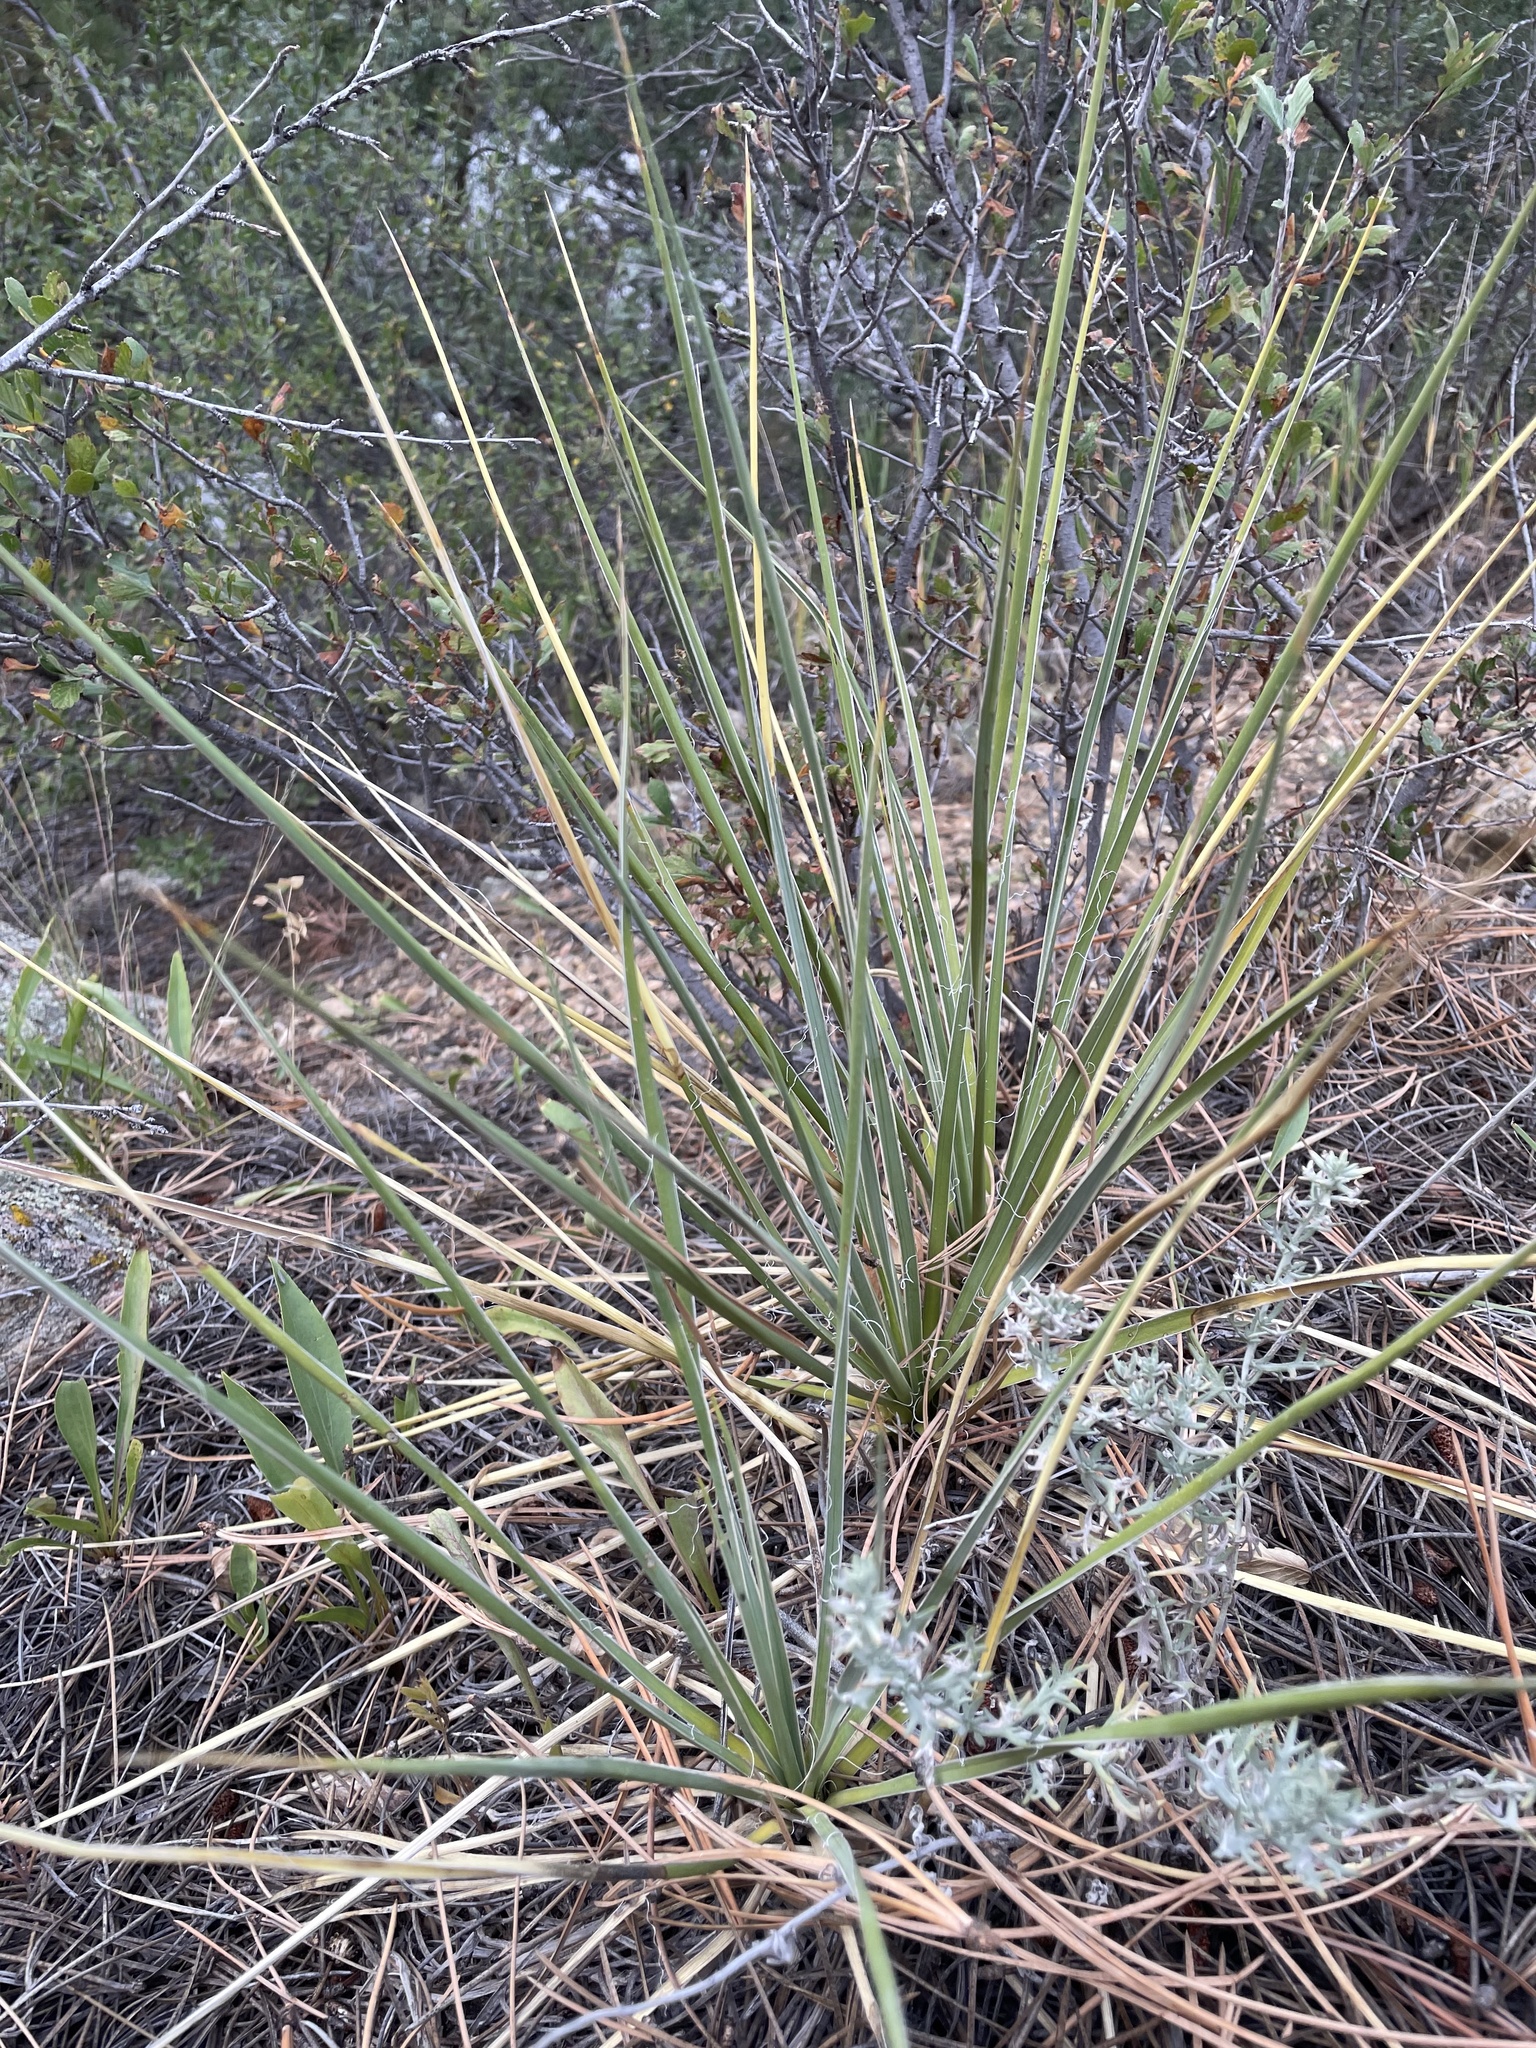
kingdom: Plantae
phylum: Tracheophyta
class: Liliopsida
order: Asparagales
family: Asparagaceae
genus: Yucca
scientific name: Yucca glauca
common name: Great plains yucca
